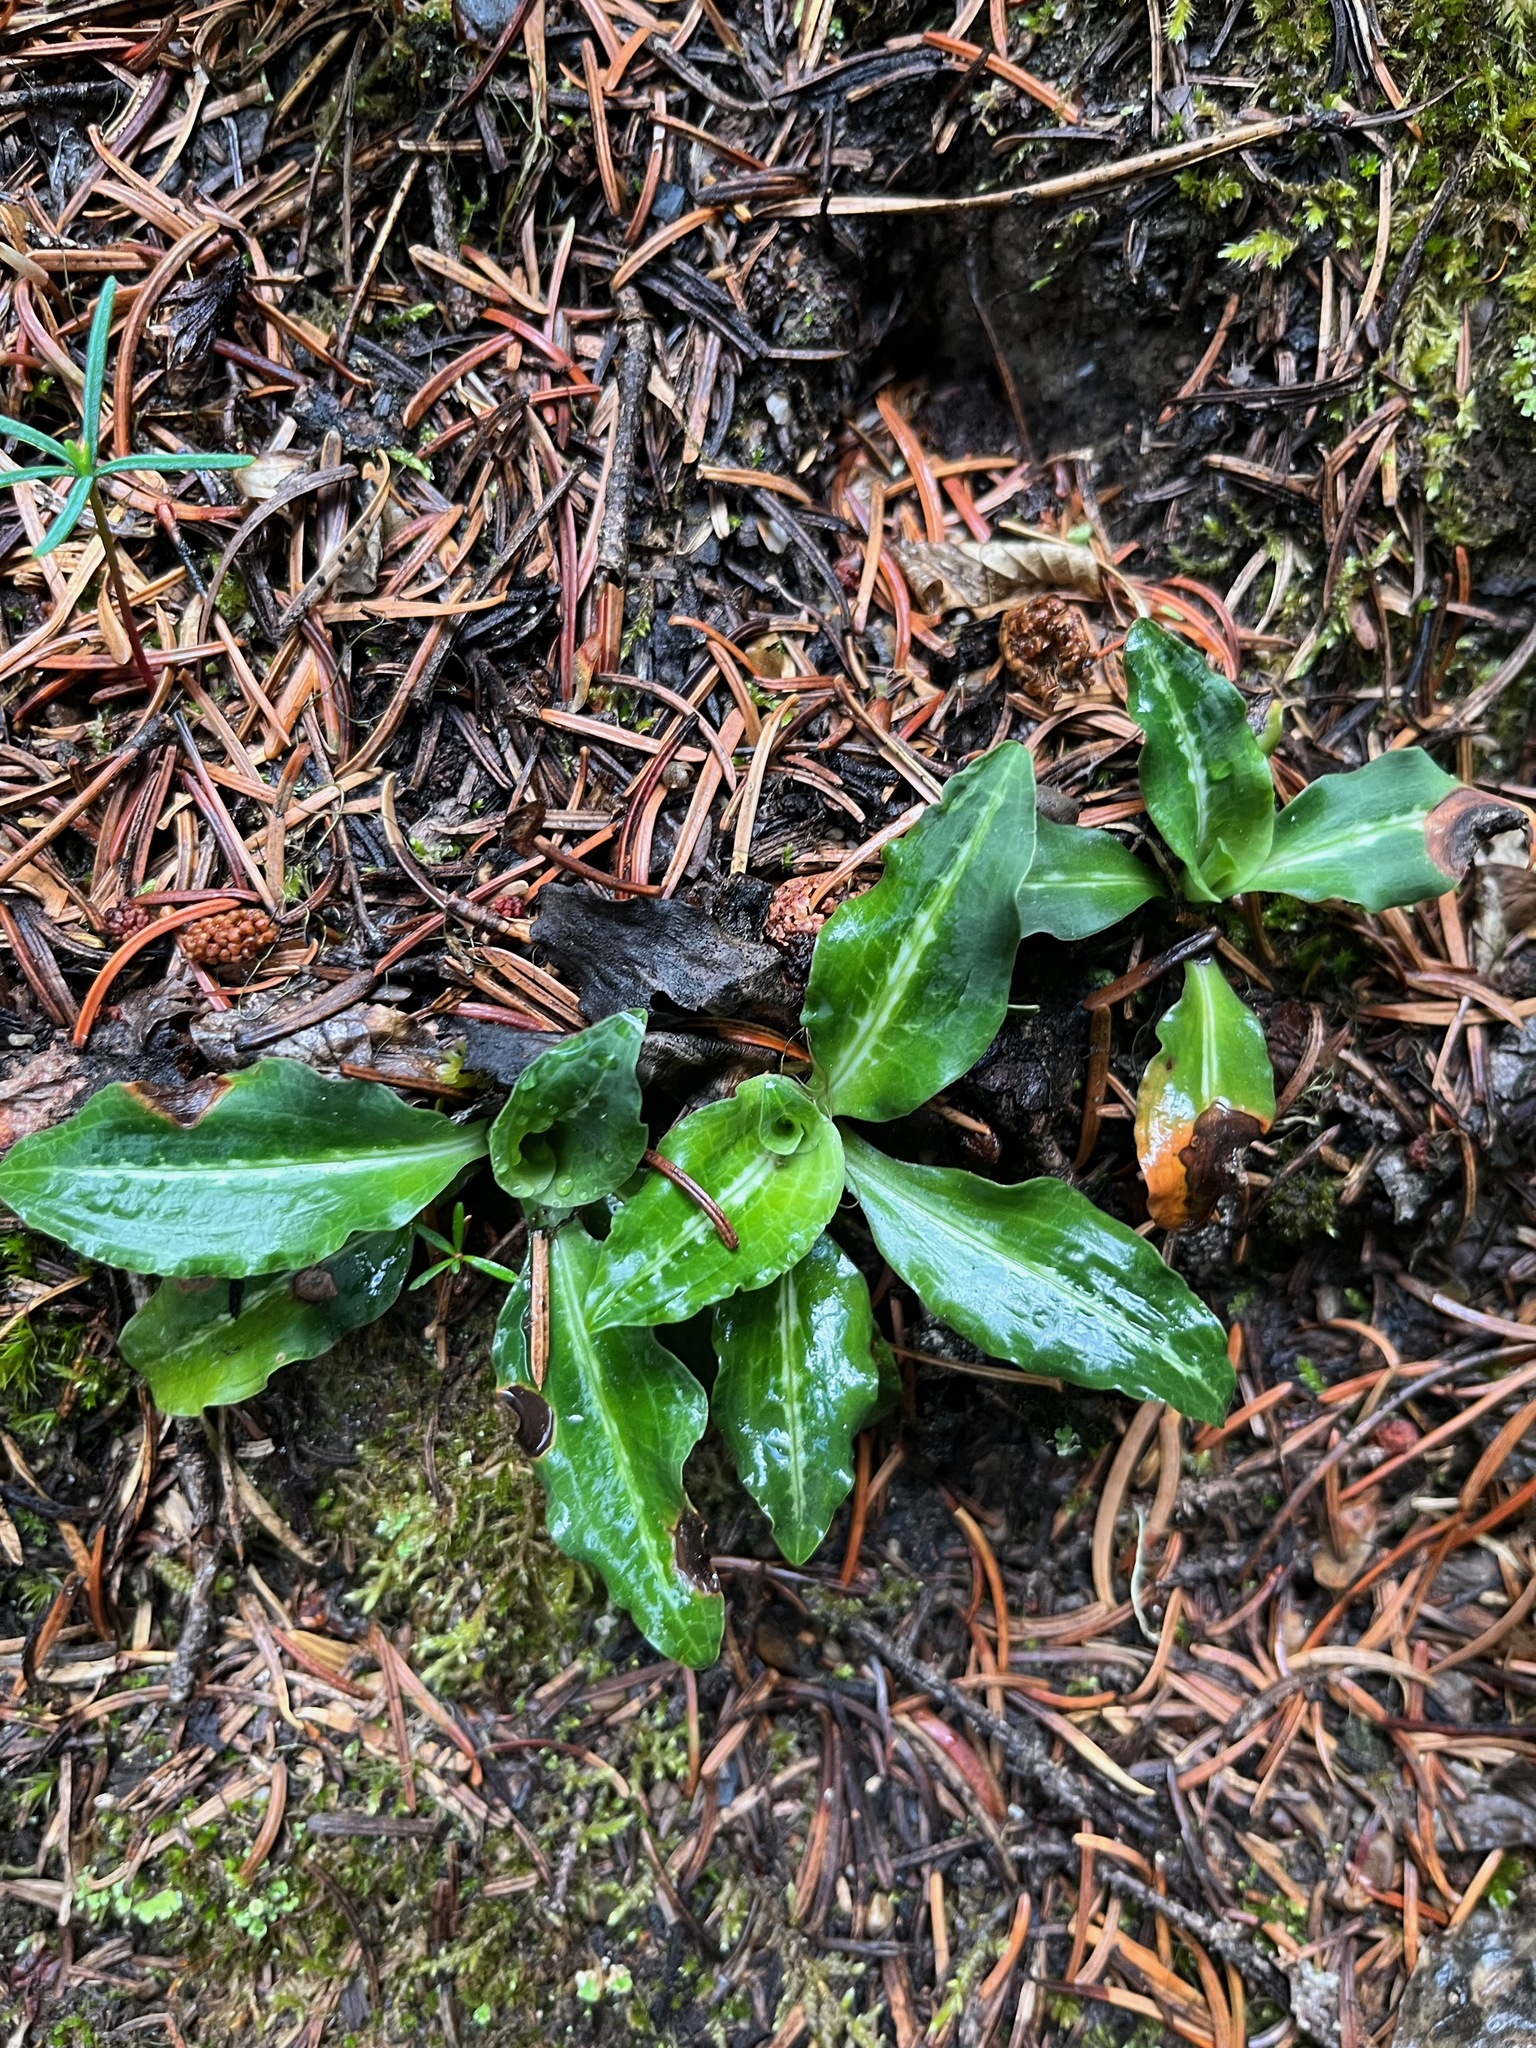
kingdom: Plantae
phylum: Tracheophyta
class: Liliopsida
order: Asparagales
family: Orchidaceae
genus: Goodyera
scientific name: Goodyera oblongifolia
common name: Giant rattlesnake-plantain
